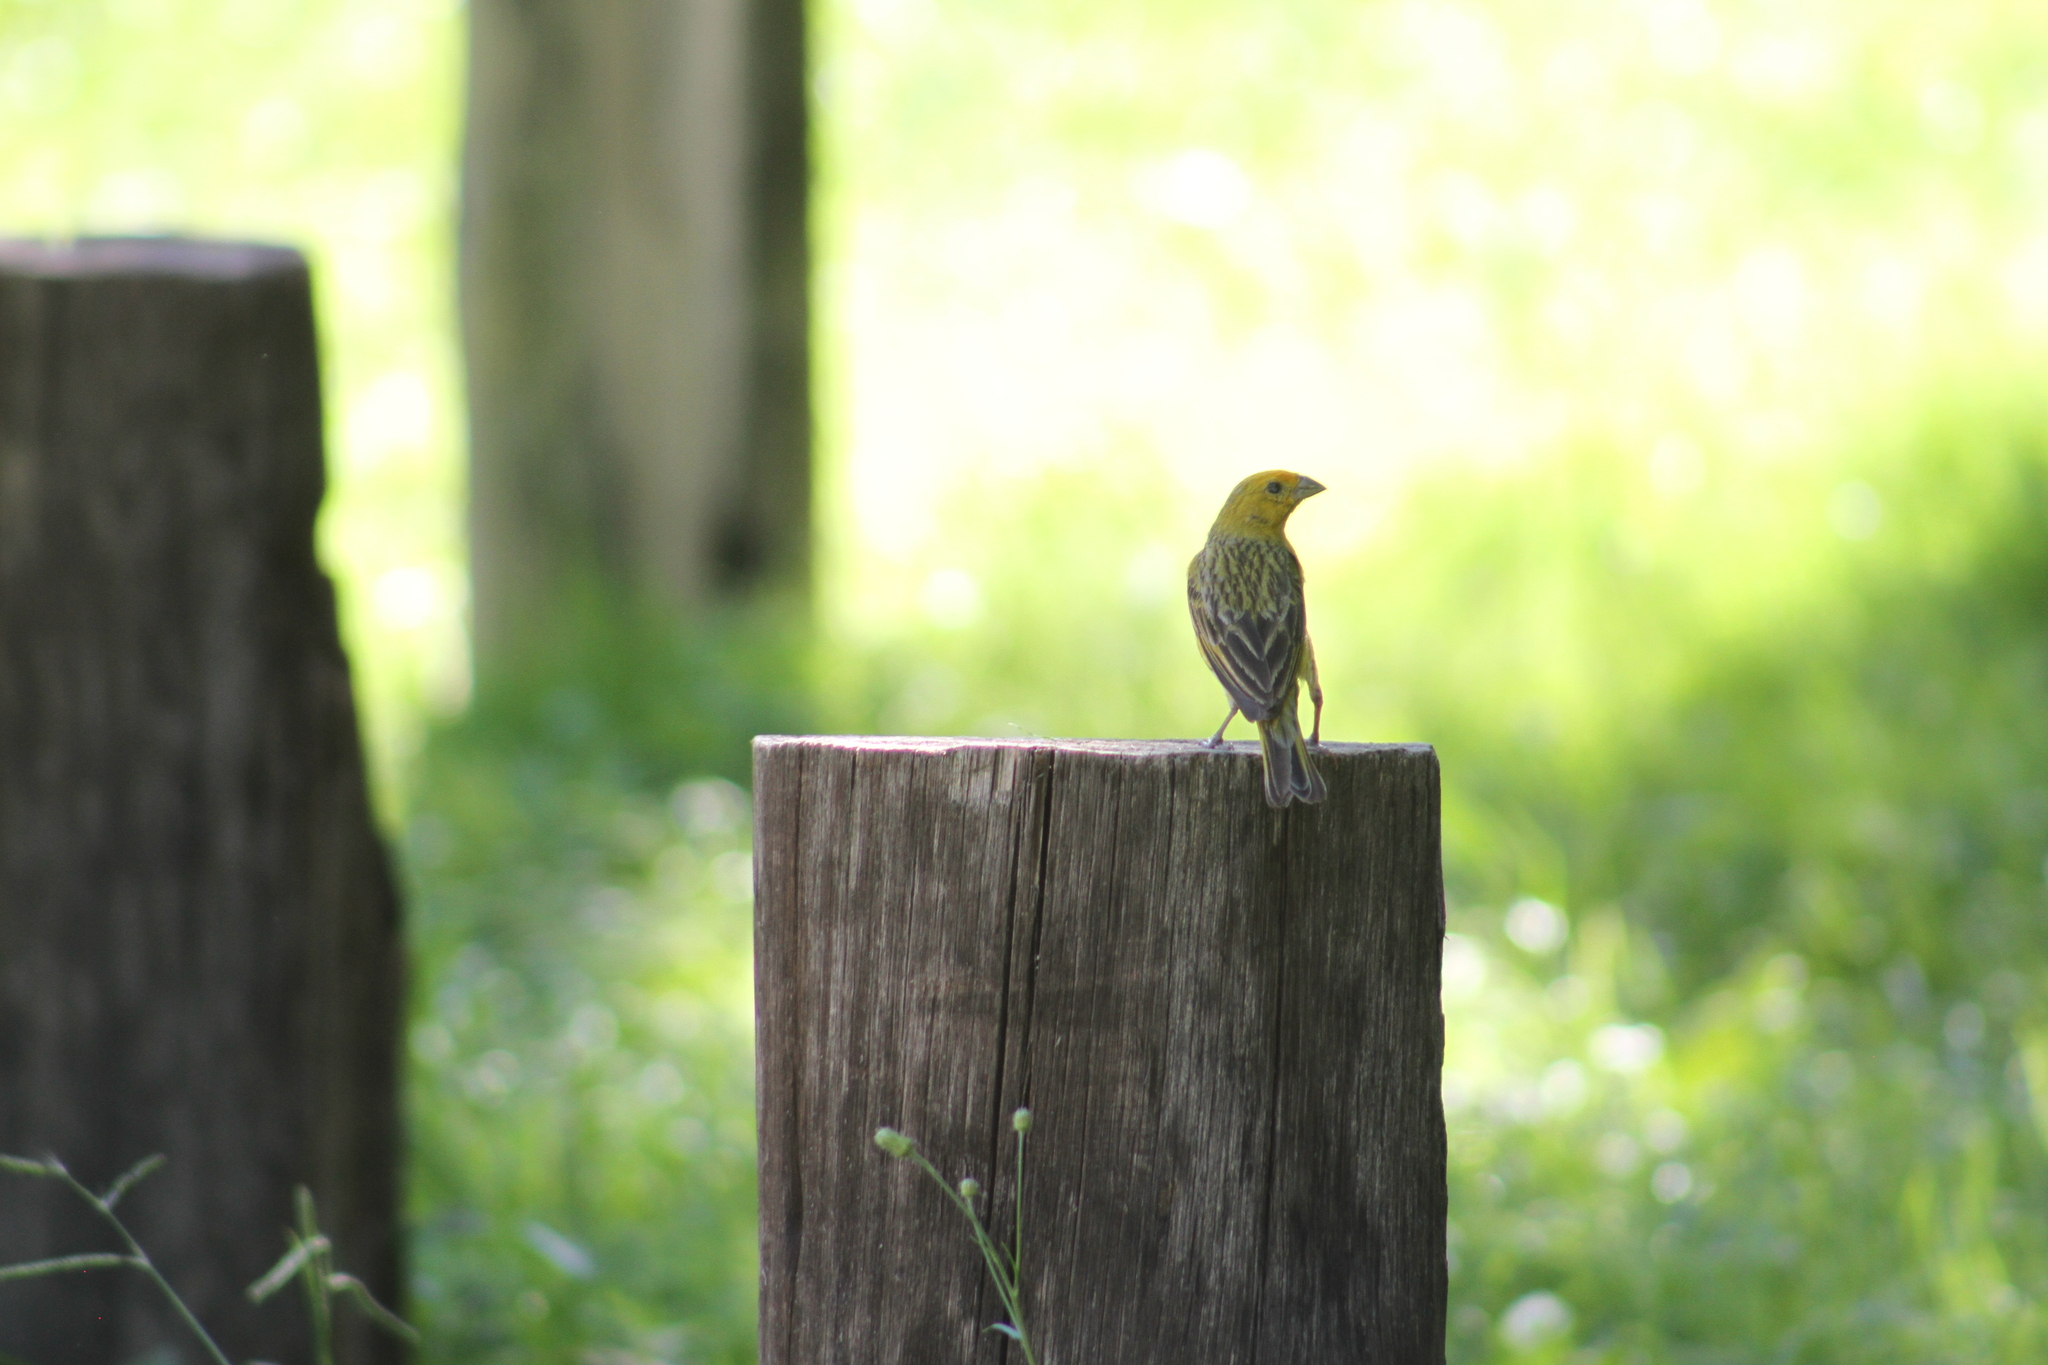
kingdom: Animalia
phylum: Chordata
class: Aves
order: Passeriformes
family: Thraupidae
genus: Sicalis
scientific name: Sicalis flaveola
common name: Saffron finch
